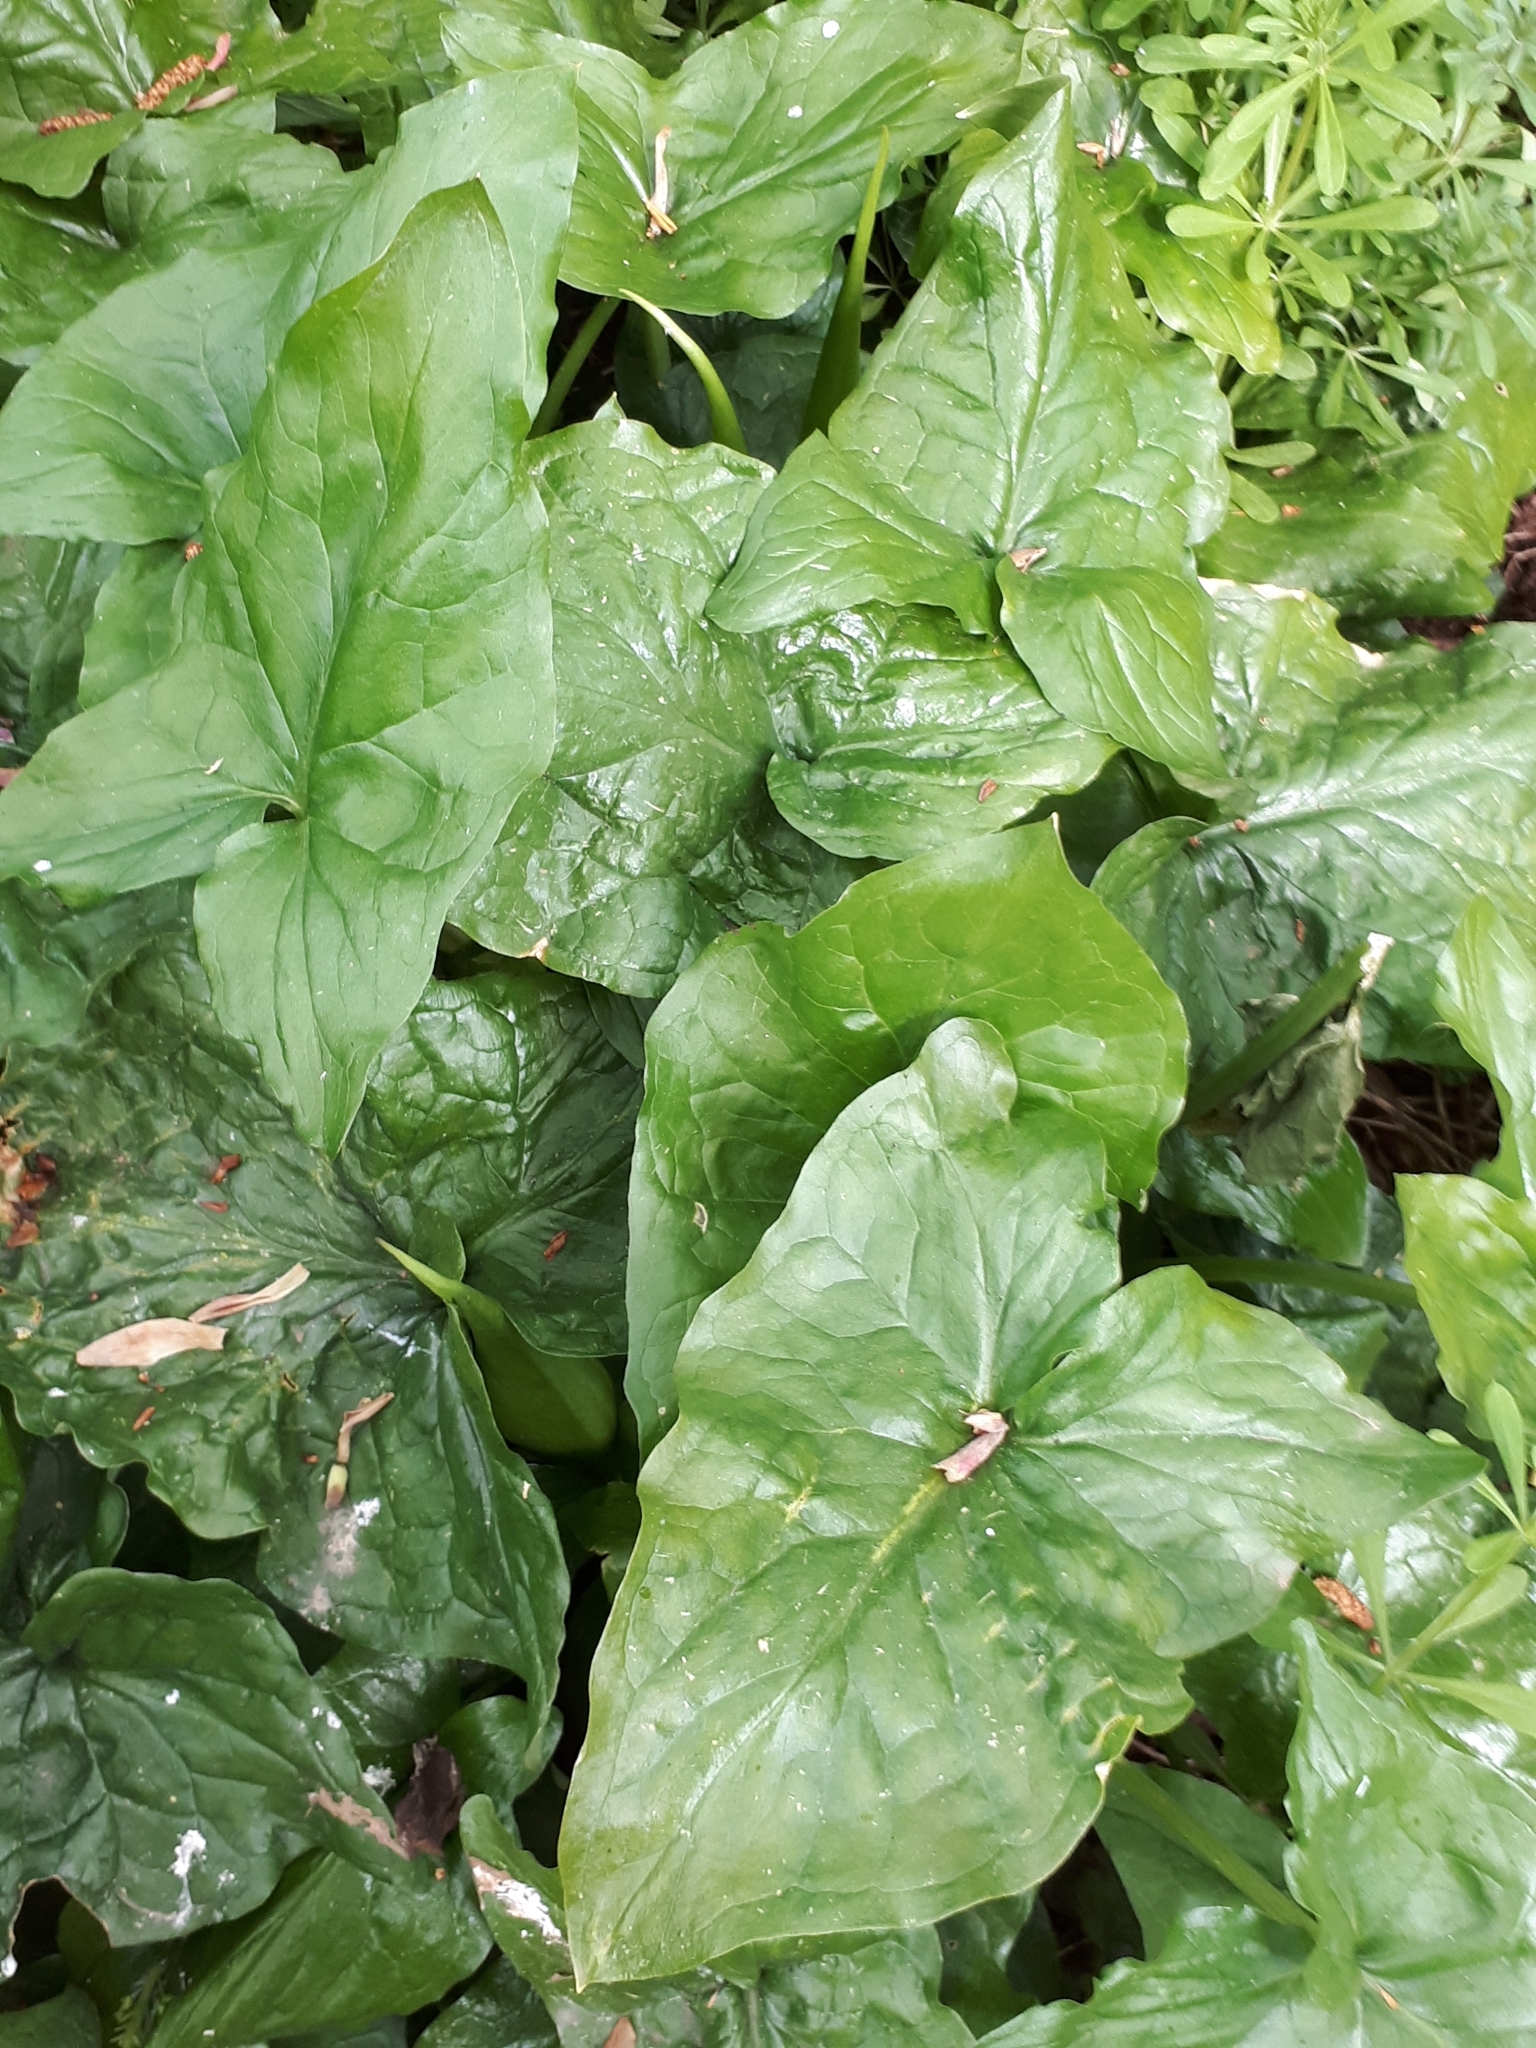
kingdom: Plantae
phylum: Tracheophyta
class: Liliopsida
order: Alismatales
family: Araceae
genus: Arum
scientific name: Arum maculatum
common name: Lords-and-ladies
